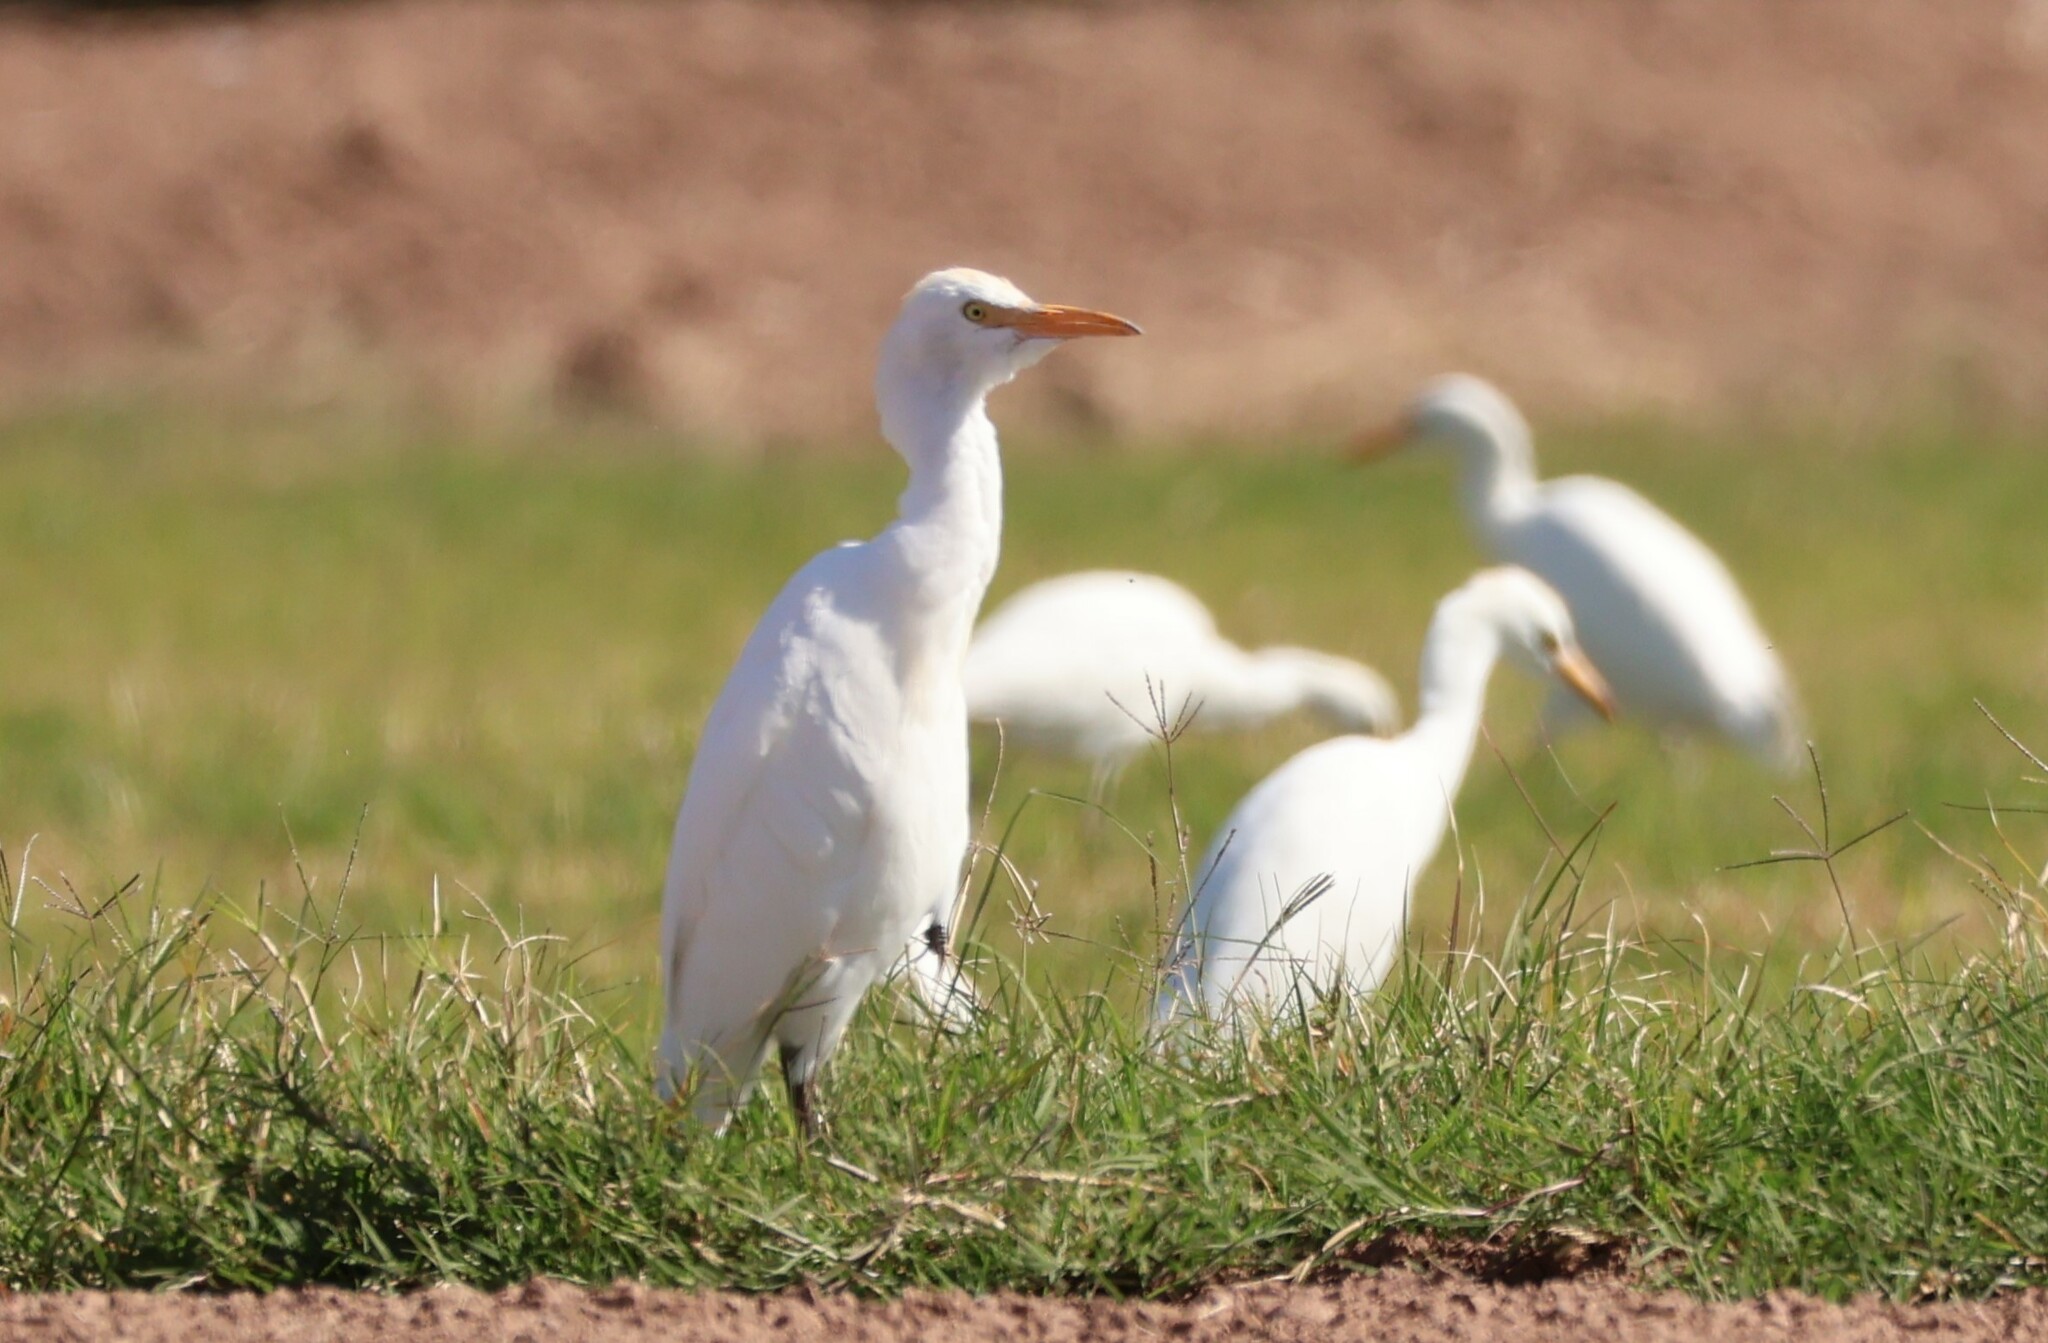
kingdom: Animalia
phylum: Chordata
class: Aves
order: Pelecaniformes
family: Ardeidae
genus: Bubulcus
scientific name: Bubulcus ibis
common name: Cattle egret
